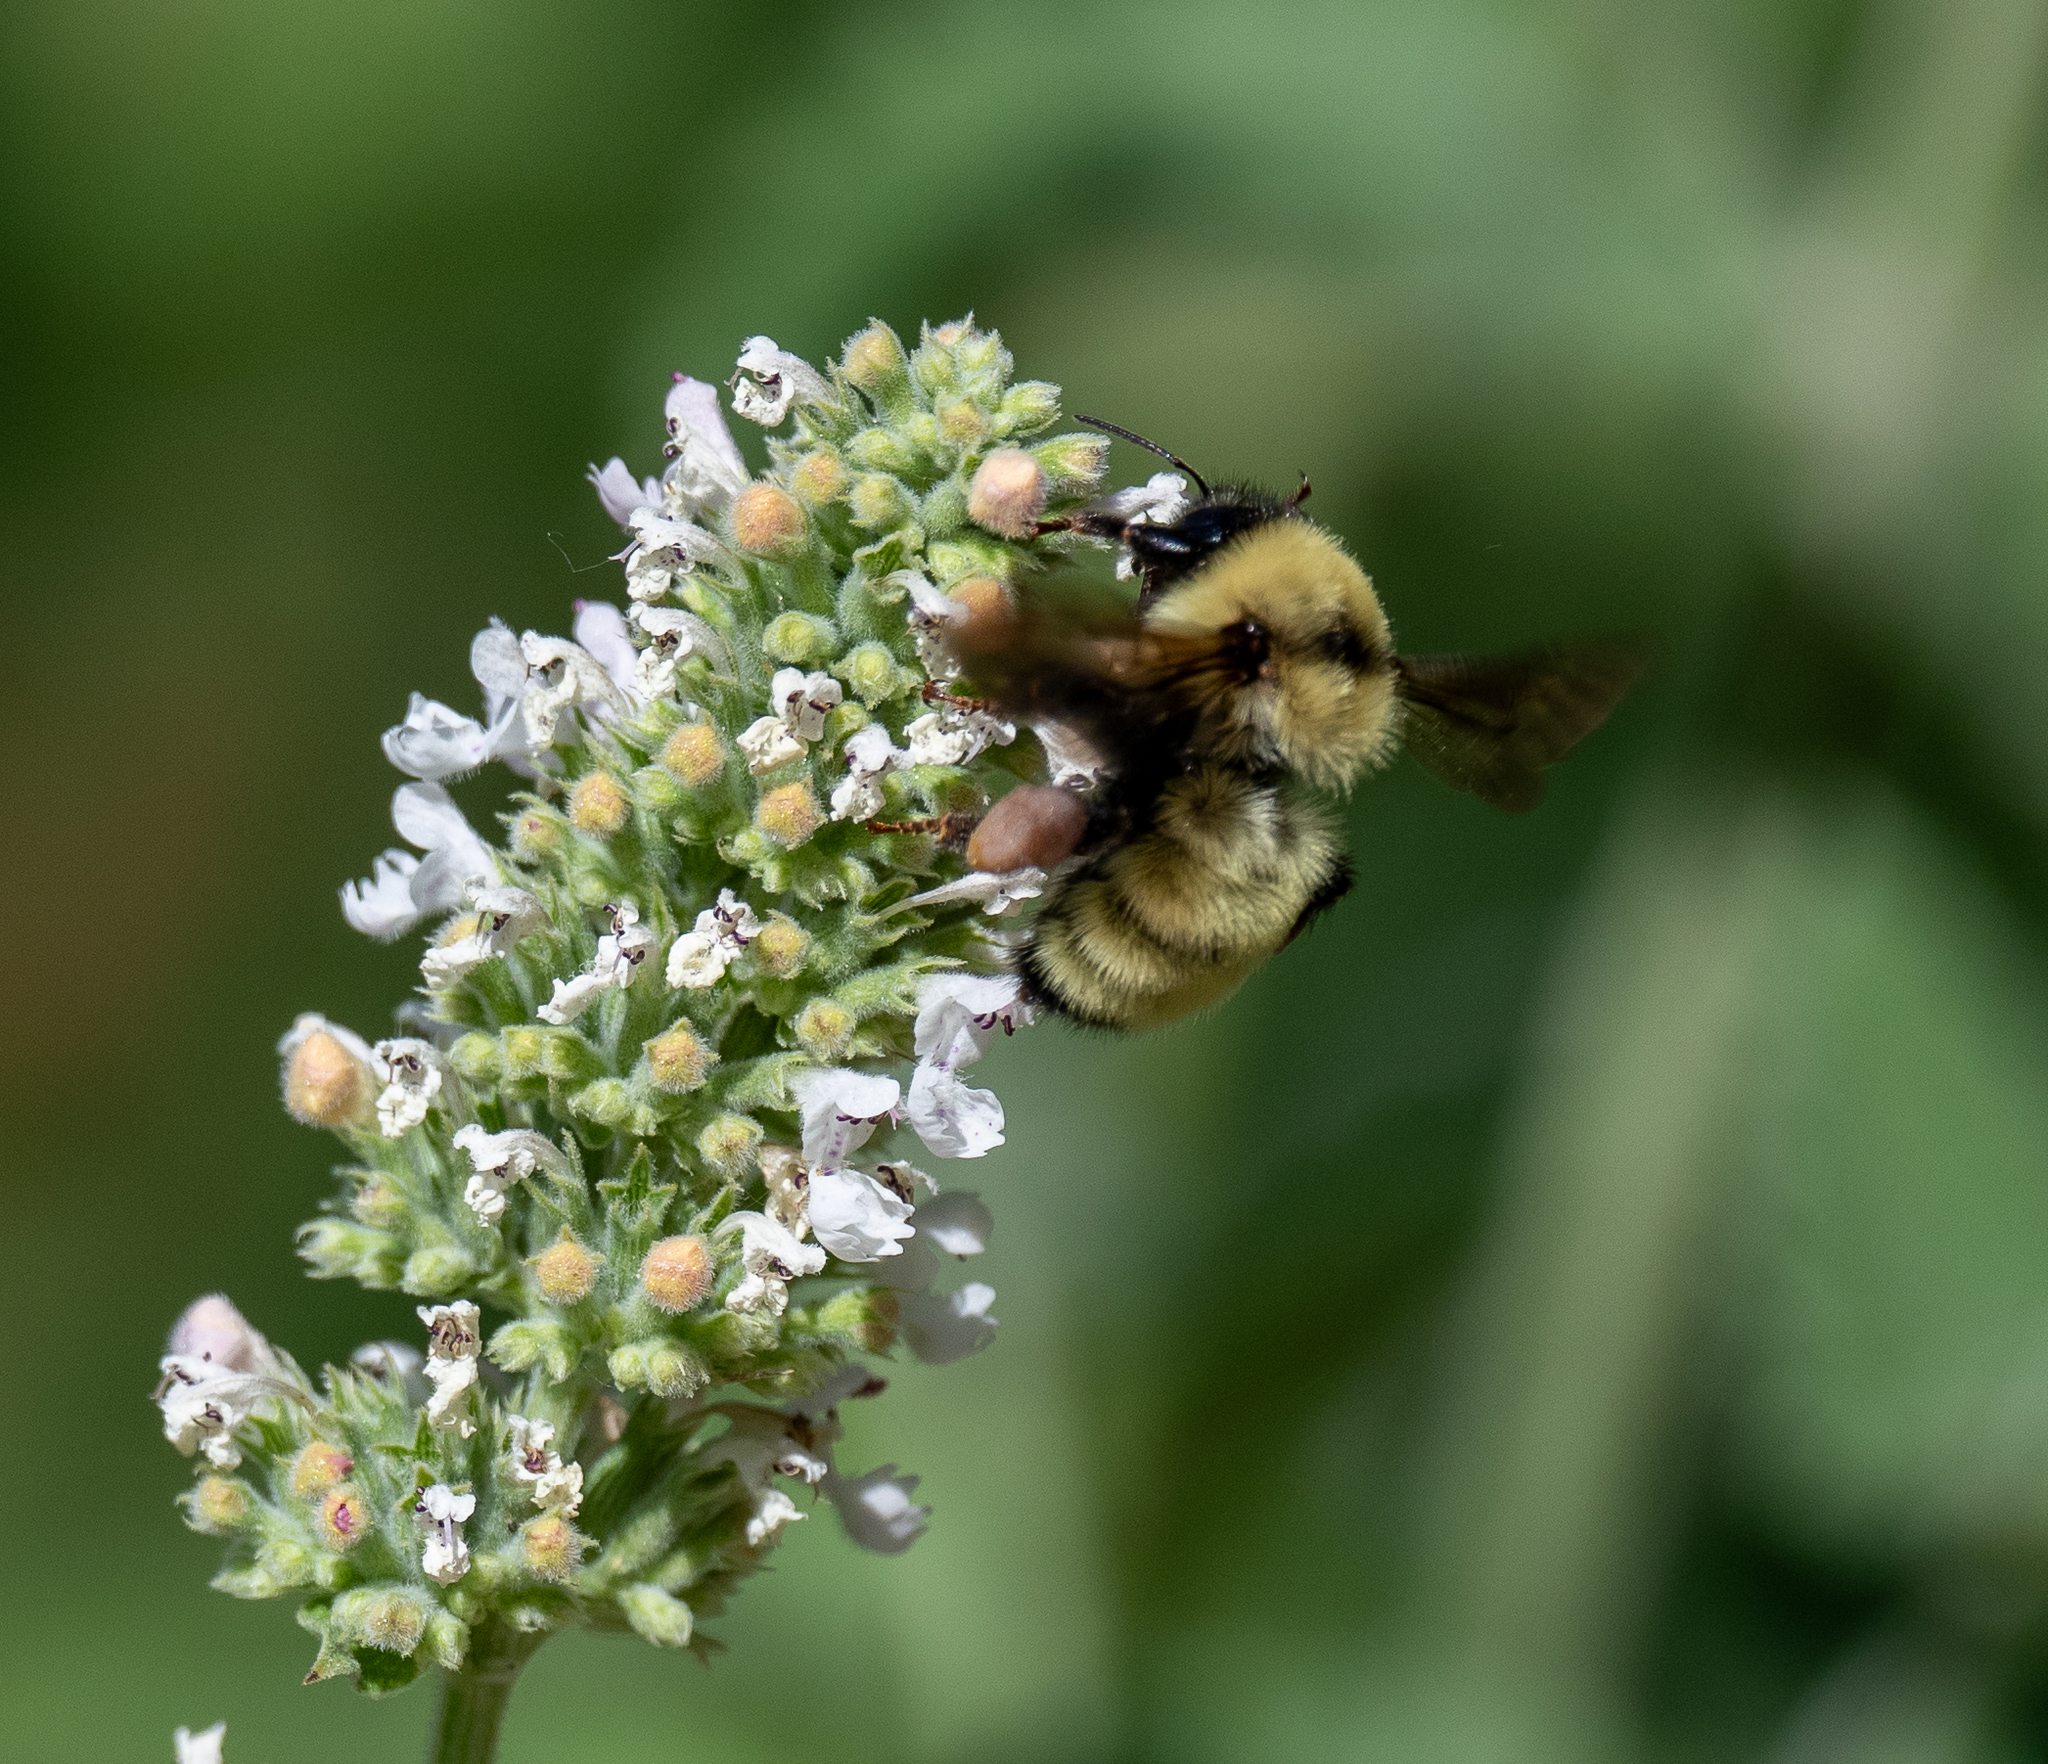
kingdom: Animalia
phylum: Arthropoda
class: Insecta
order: Hymenoptera
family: Apidae
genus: Bombus
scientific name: Bombus fervidus
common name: Yellow bumble bee
